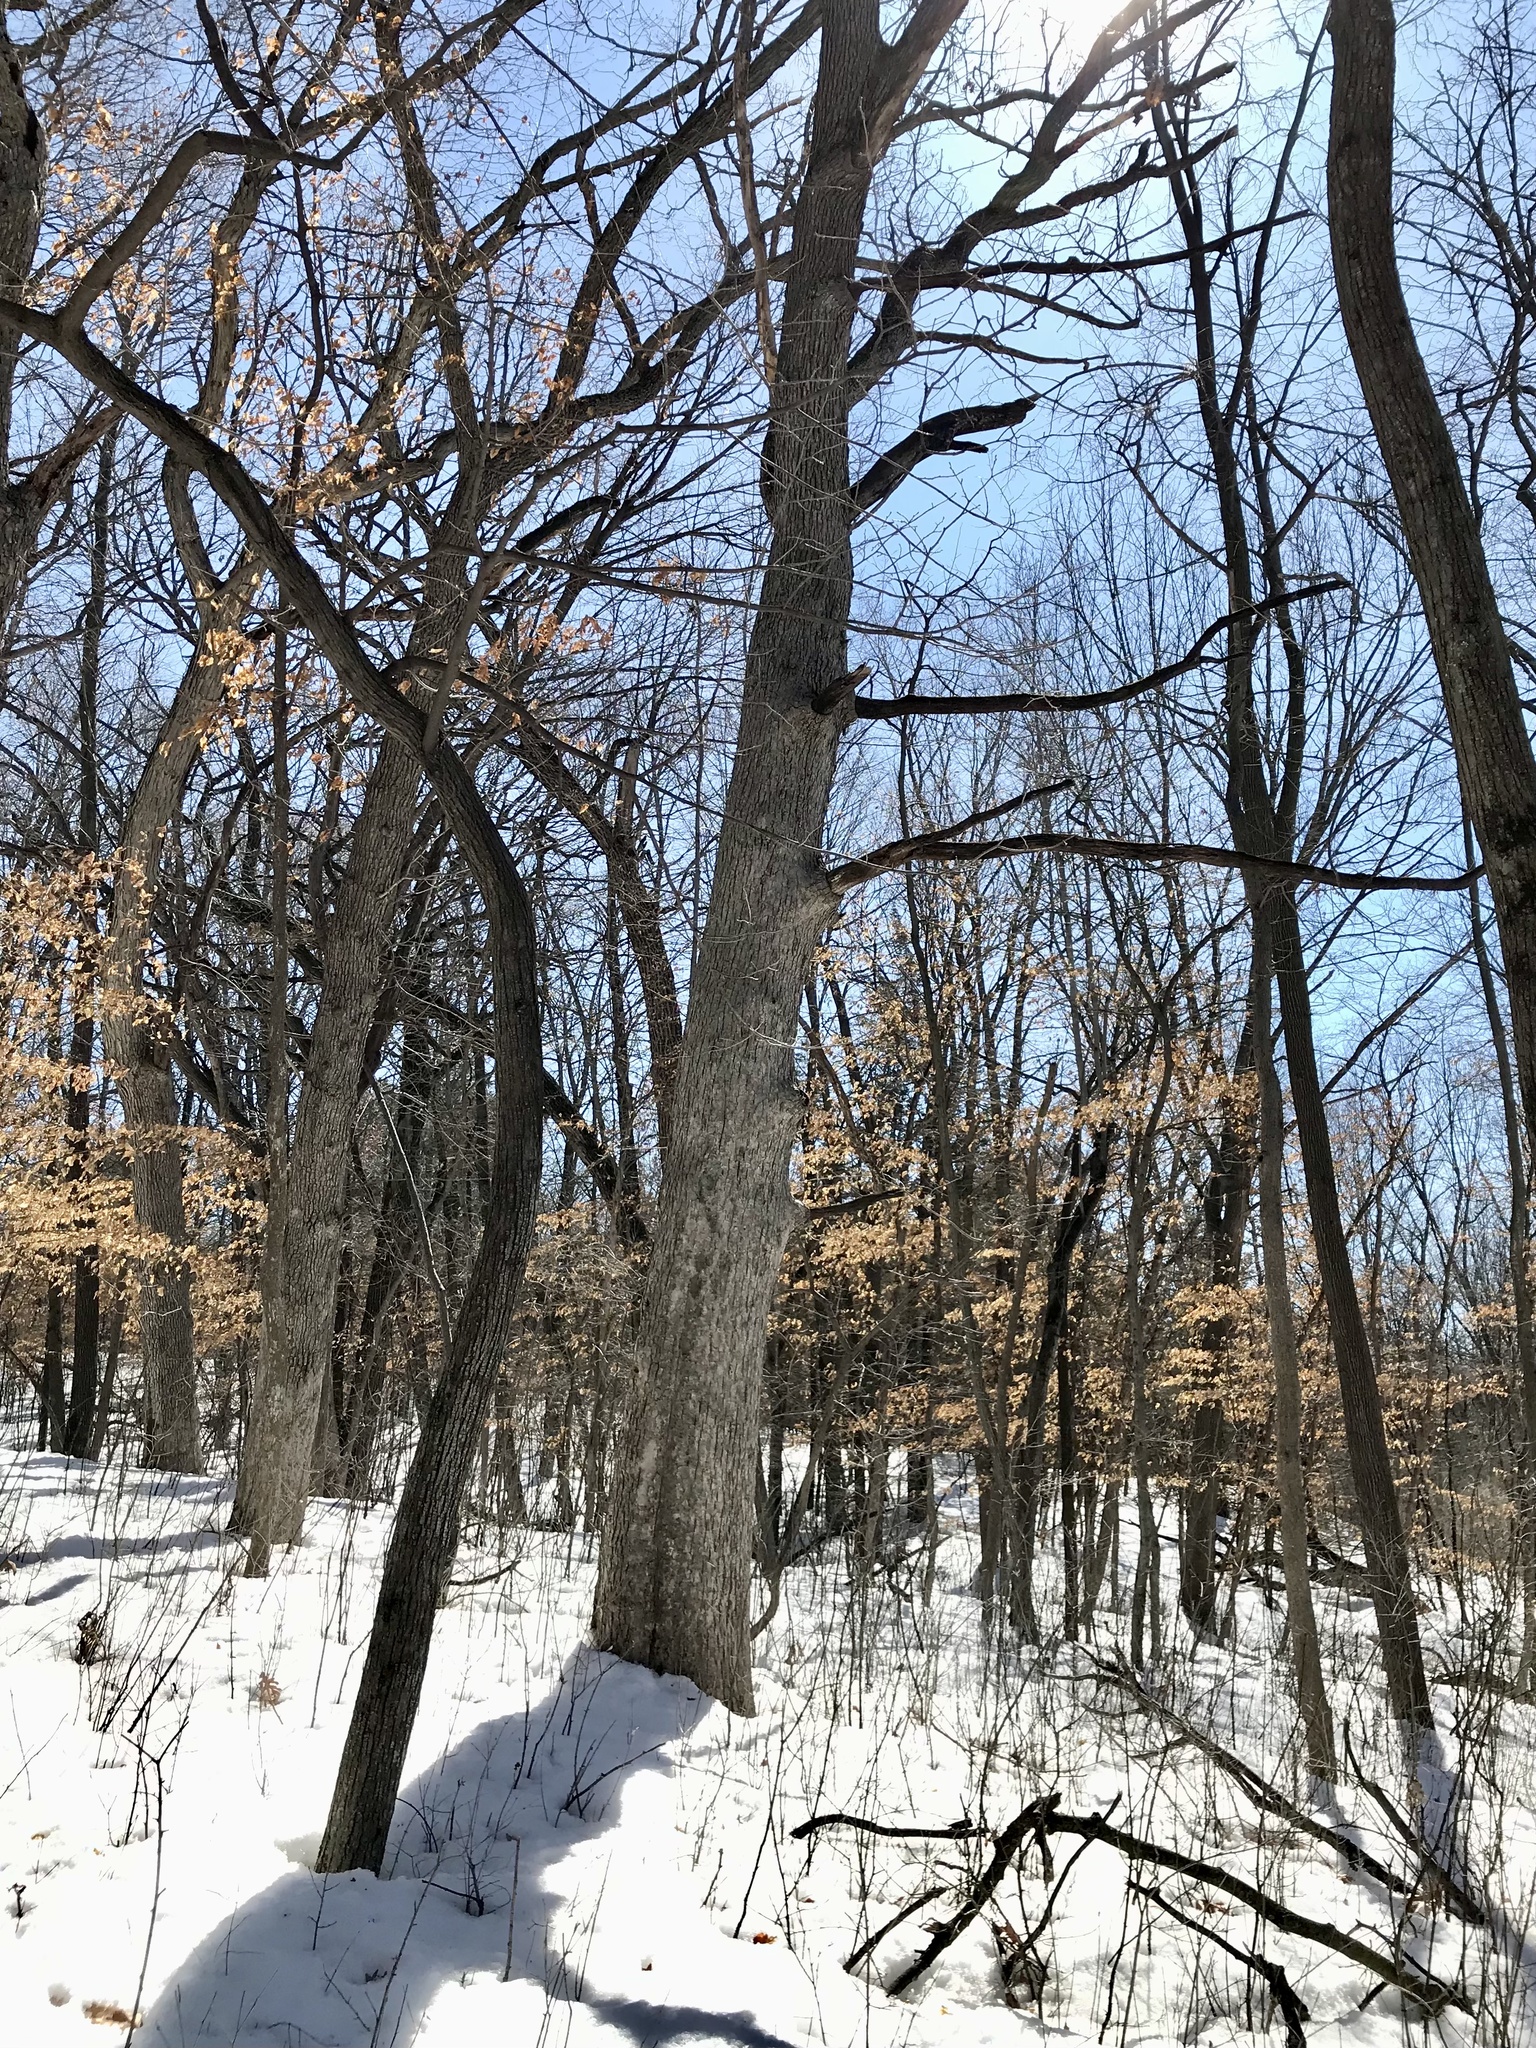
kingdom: Plantae
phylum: Tracheophyta
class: Magnoliopsida
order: Fagales
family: Fagaceae
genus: Quercus
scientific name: Quercus alba
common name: White oak
